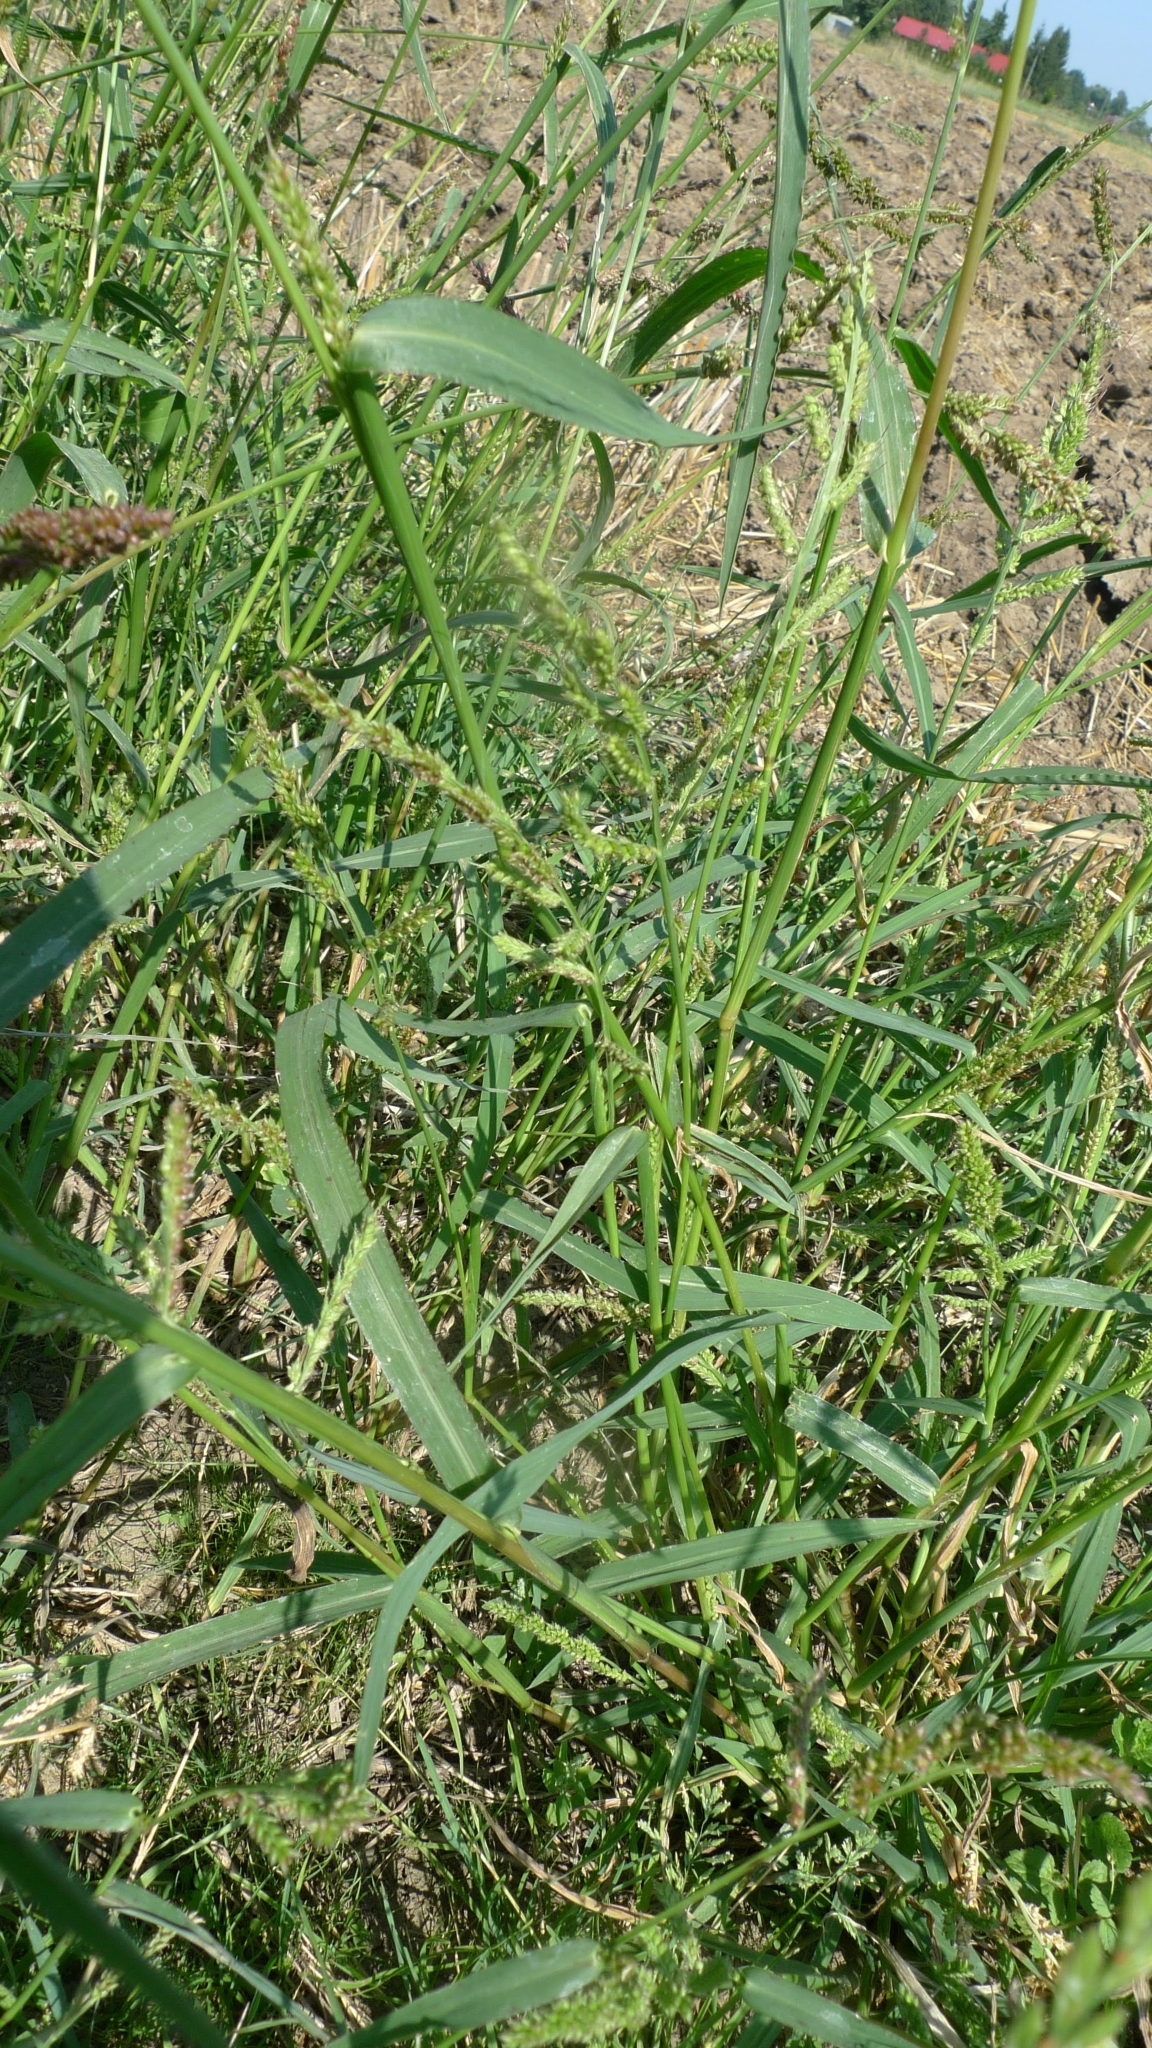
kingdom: Plantae
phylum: Tracheophyta
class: Liliopsida
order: Poales
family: Poaceae
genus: Echinochloa
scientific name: Echinochloa crus-galli
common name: Cockspur
